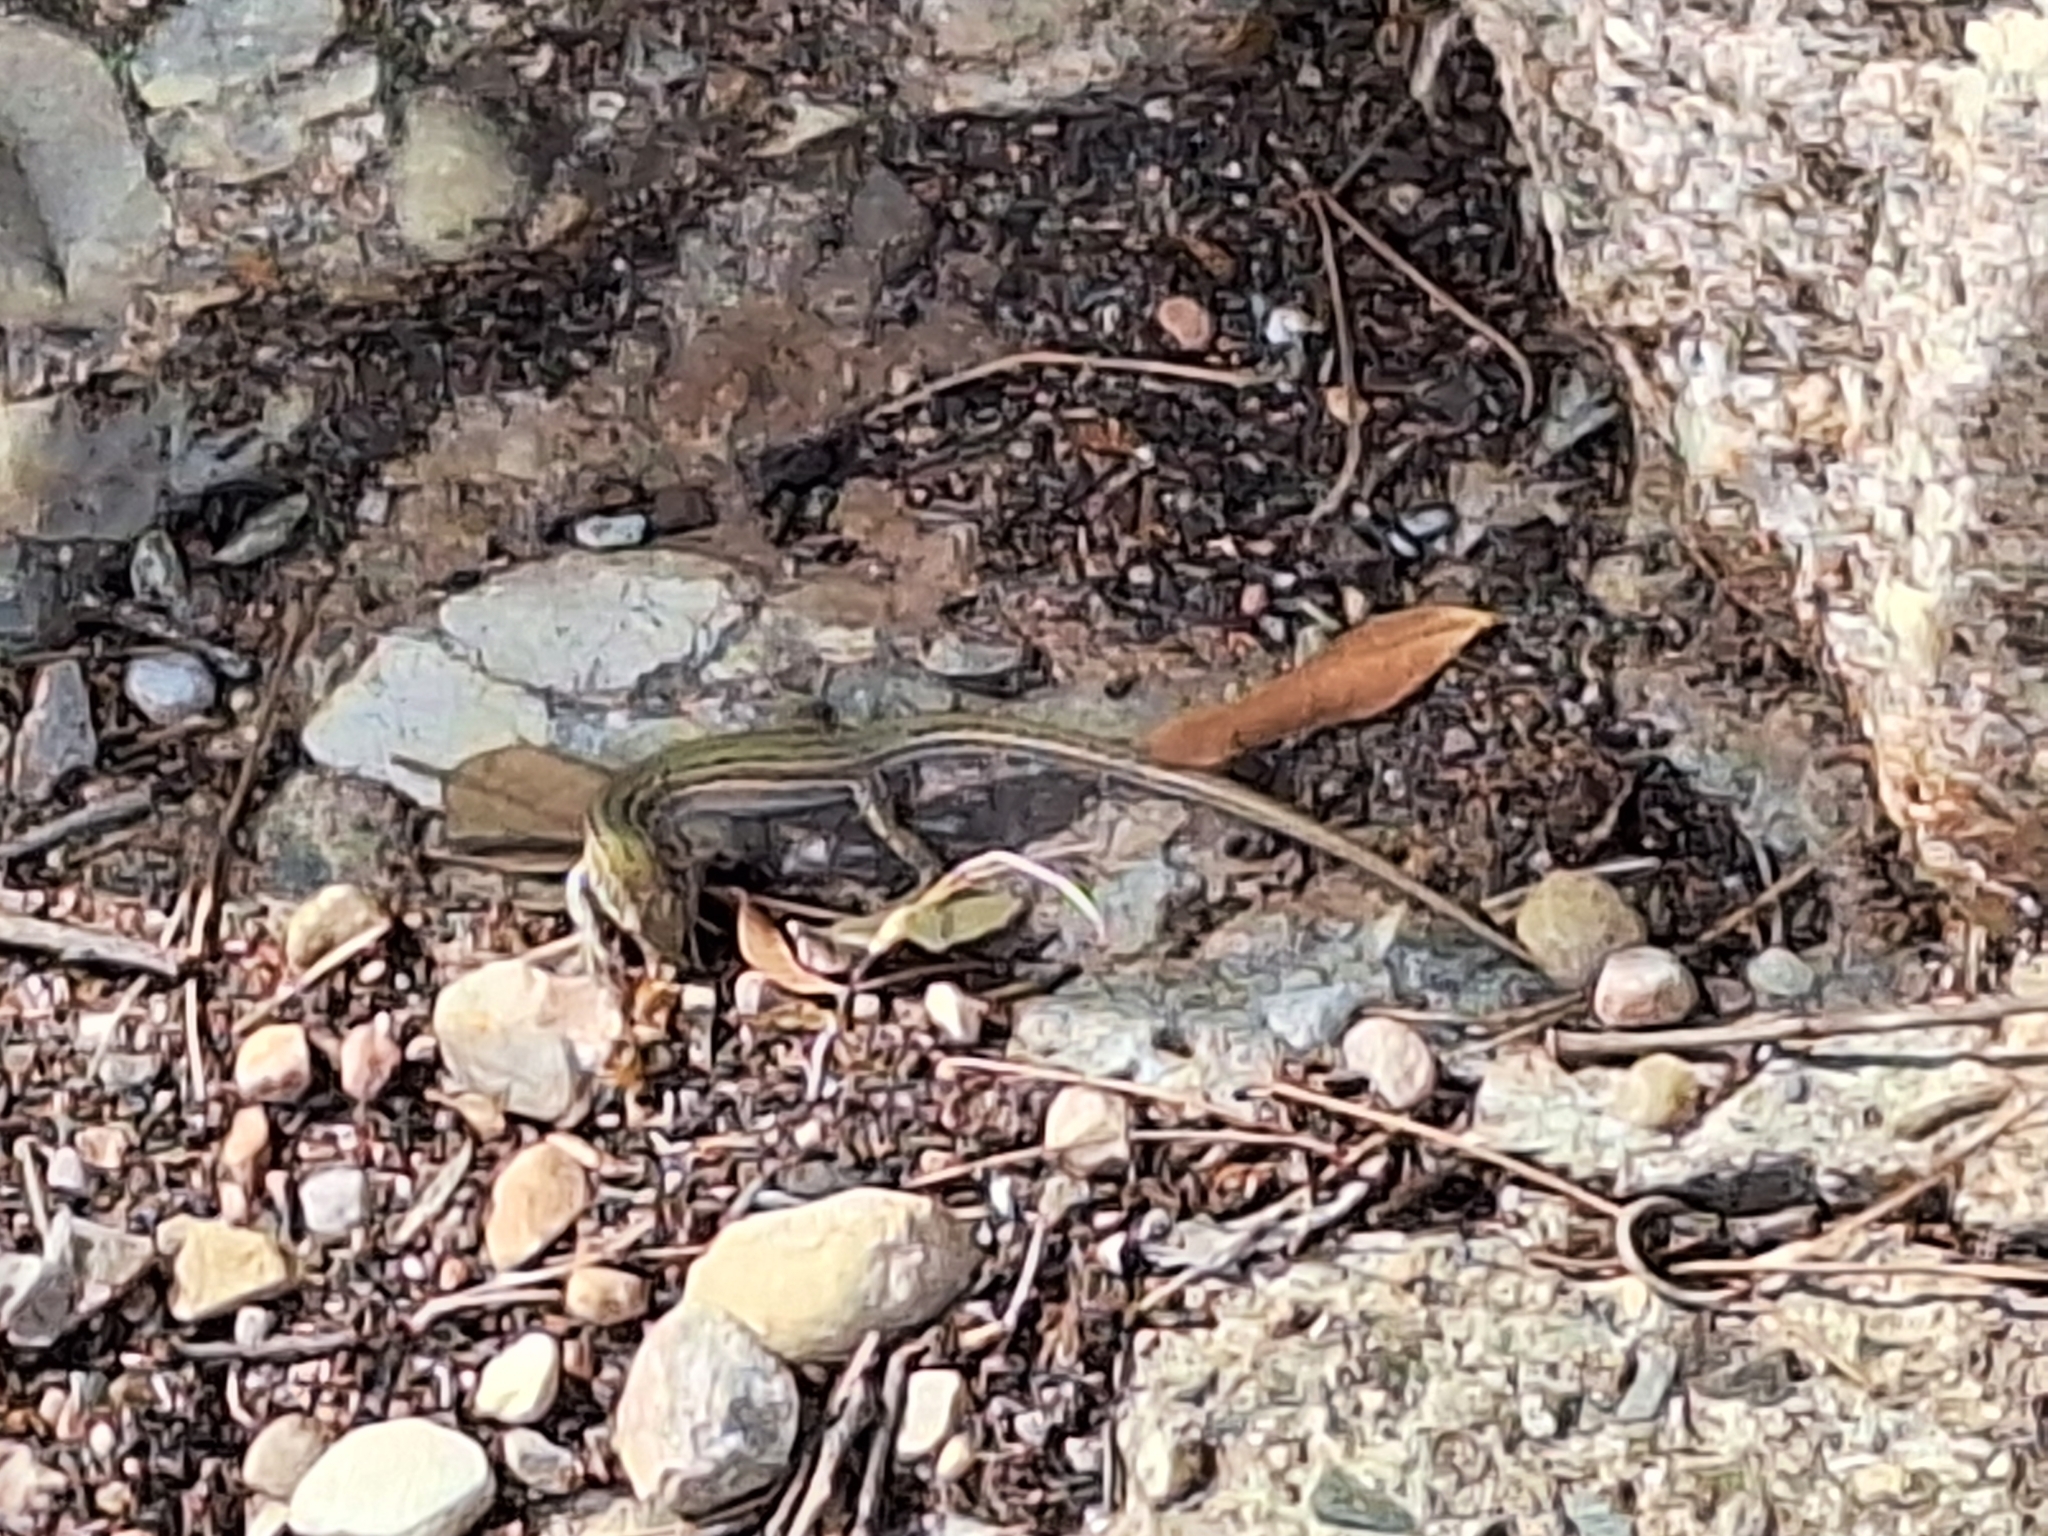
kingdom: Animalia
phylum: Chordata
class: Squamata
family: Lacertidae
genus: Podarcis
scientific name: Podarcis liolepis
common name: Catalonian wall lizard
